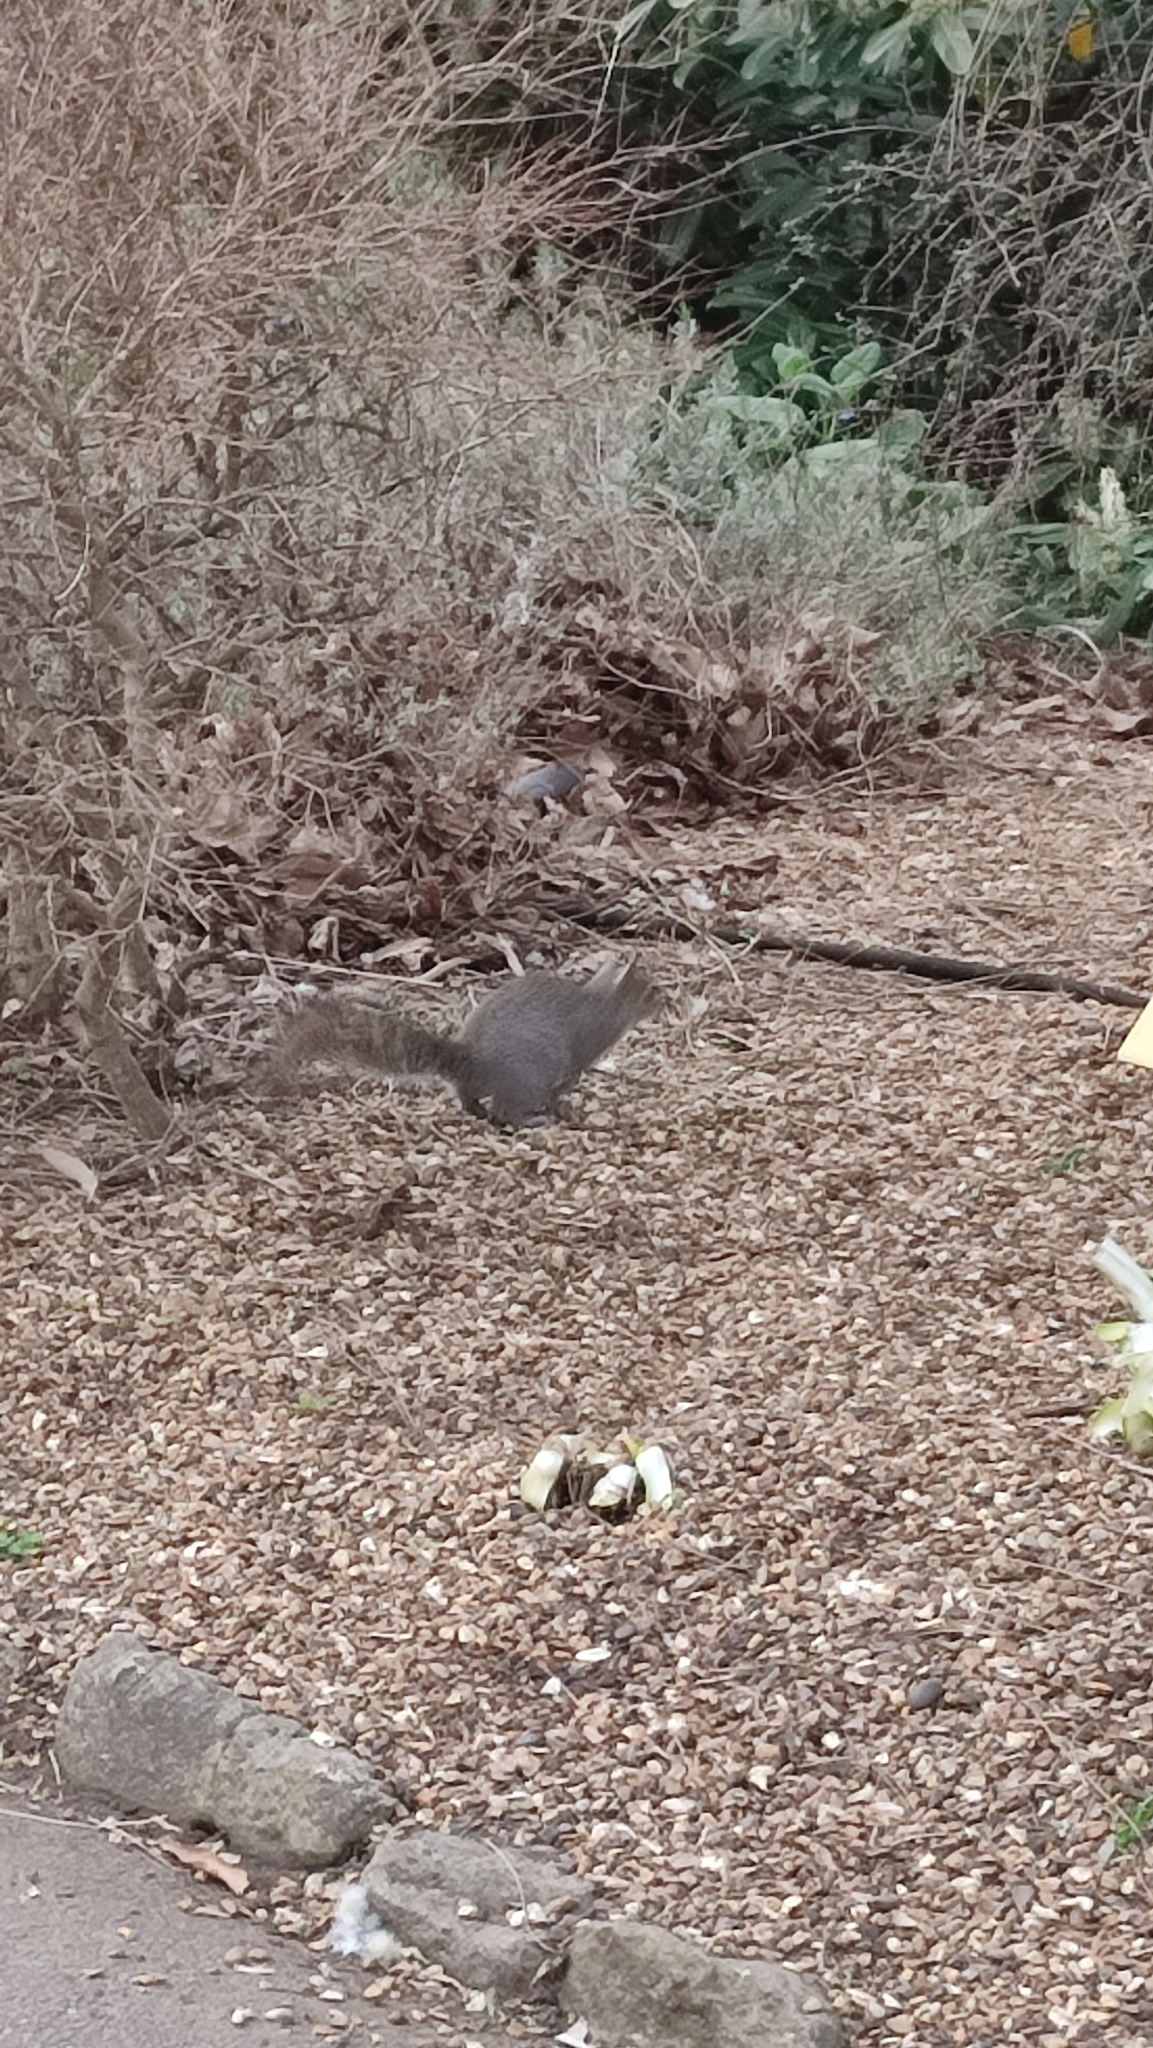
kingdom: Animalia
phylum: Chordata
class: Mammalia
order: Rodentia
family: Sciuridae
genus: Sciurus
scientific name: Sciurus carolinensis
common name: Eastern gray squirrel
